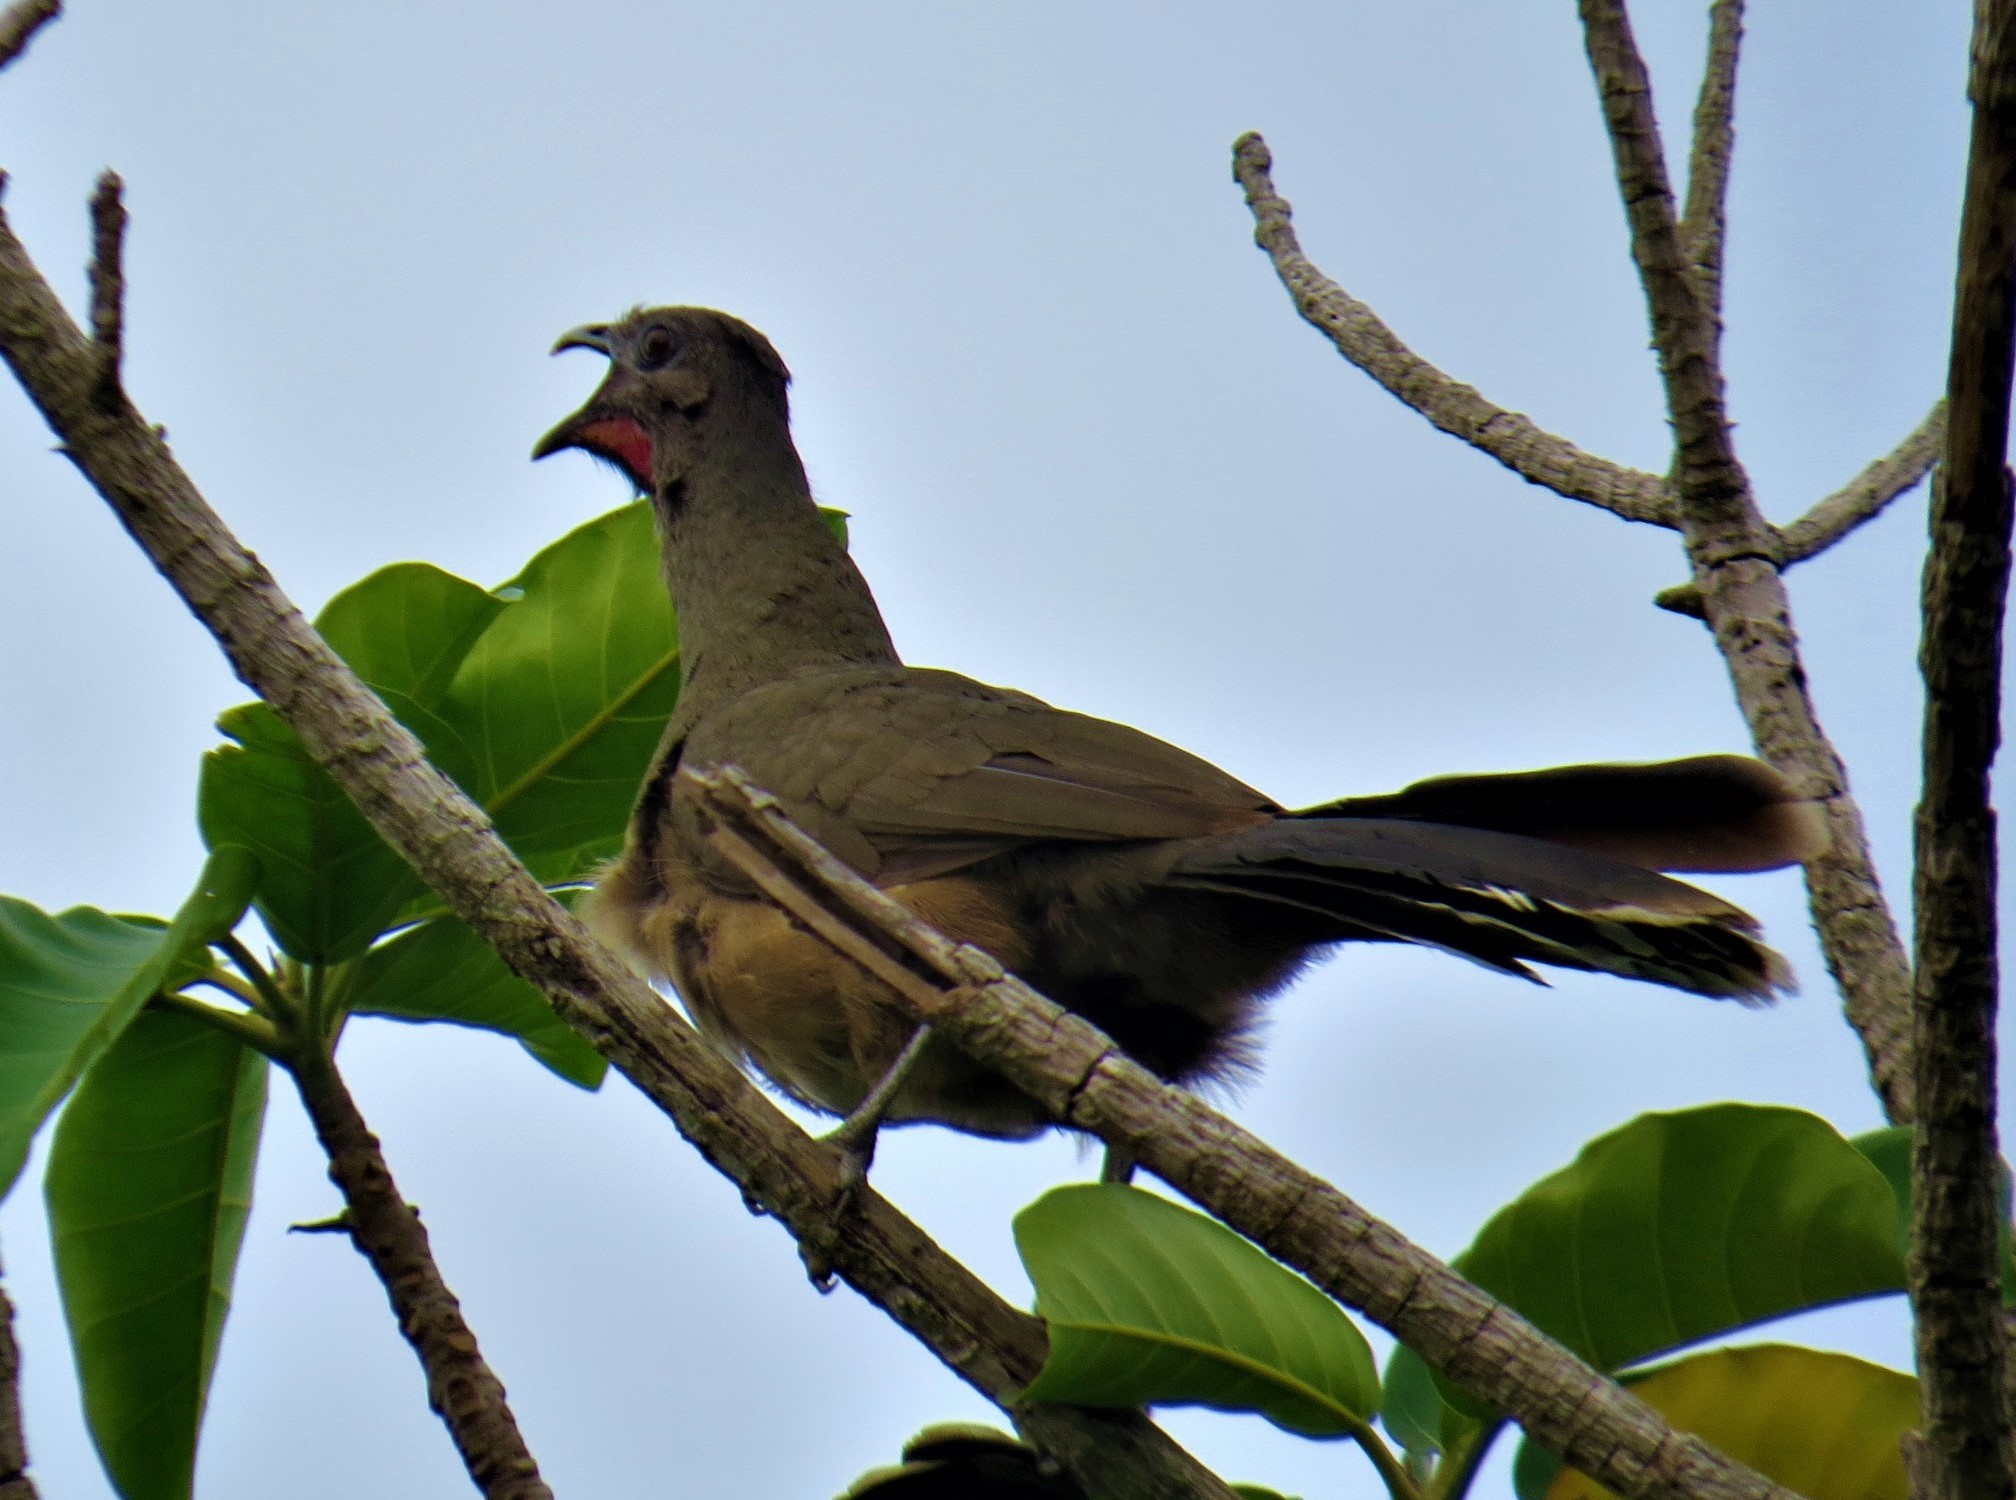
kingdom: Animalia
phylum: Chordata
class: Aves
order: Galliformes
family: Cracidae
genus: Ortalis
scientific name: Ortalis vetula
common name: Plain chachalaca
